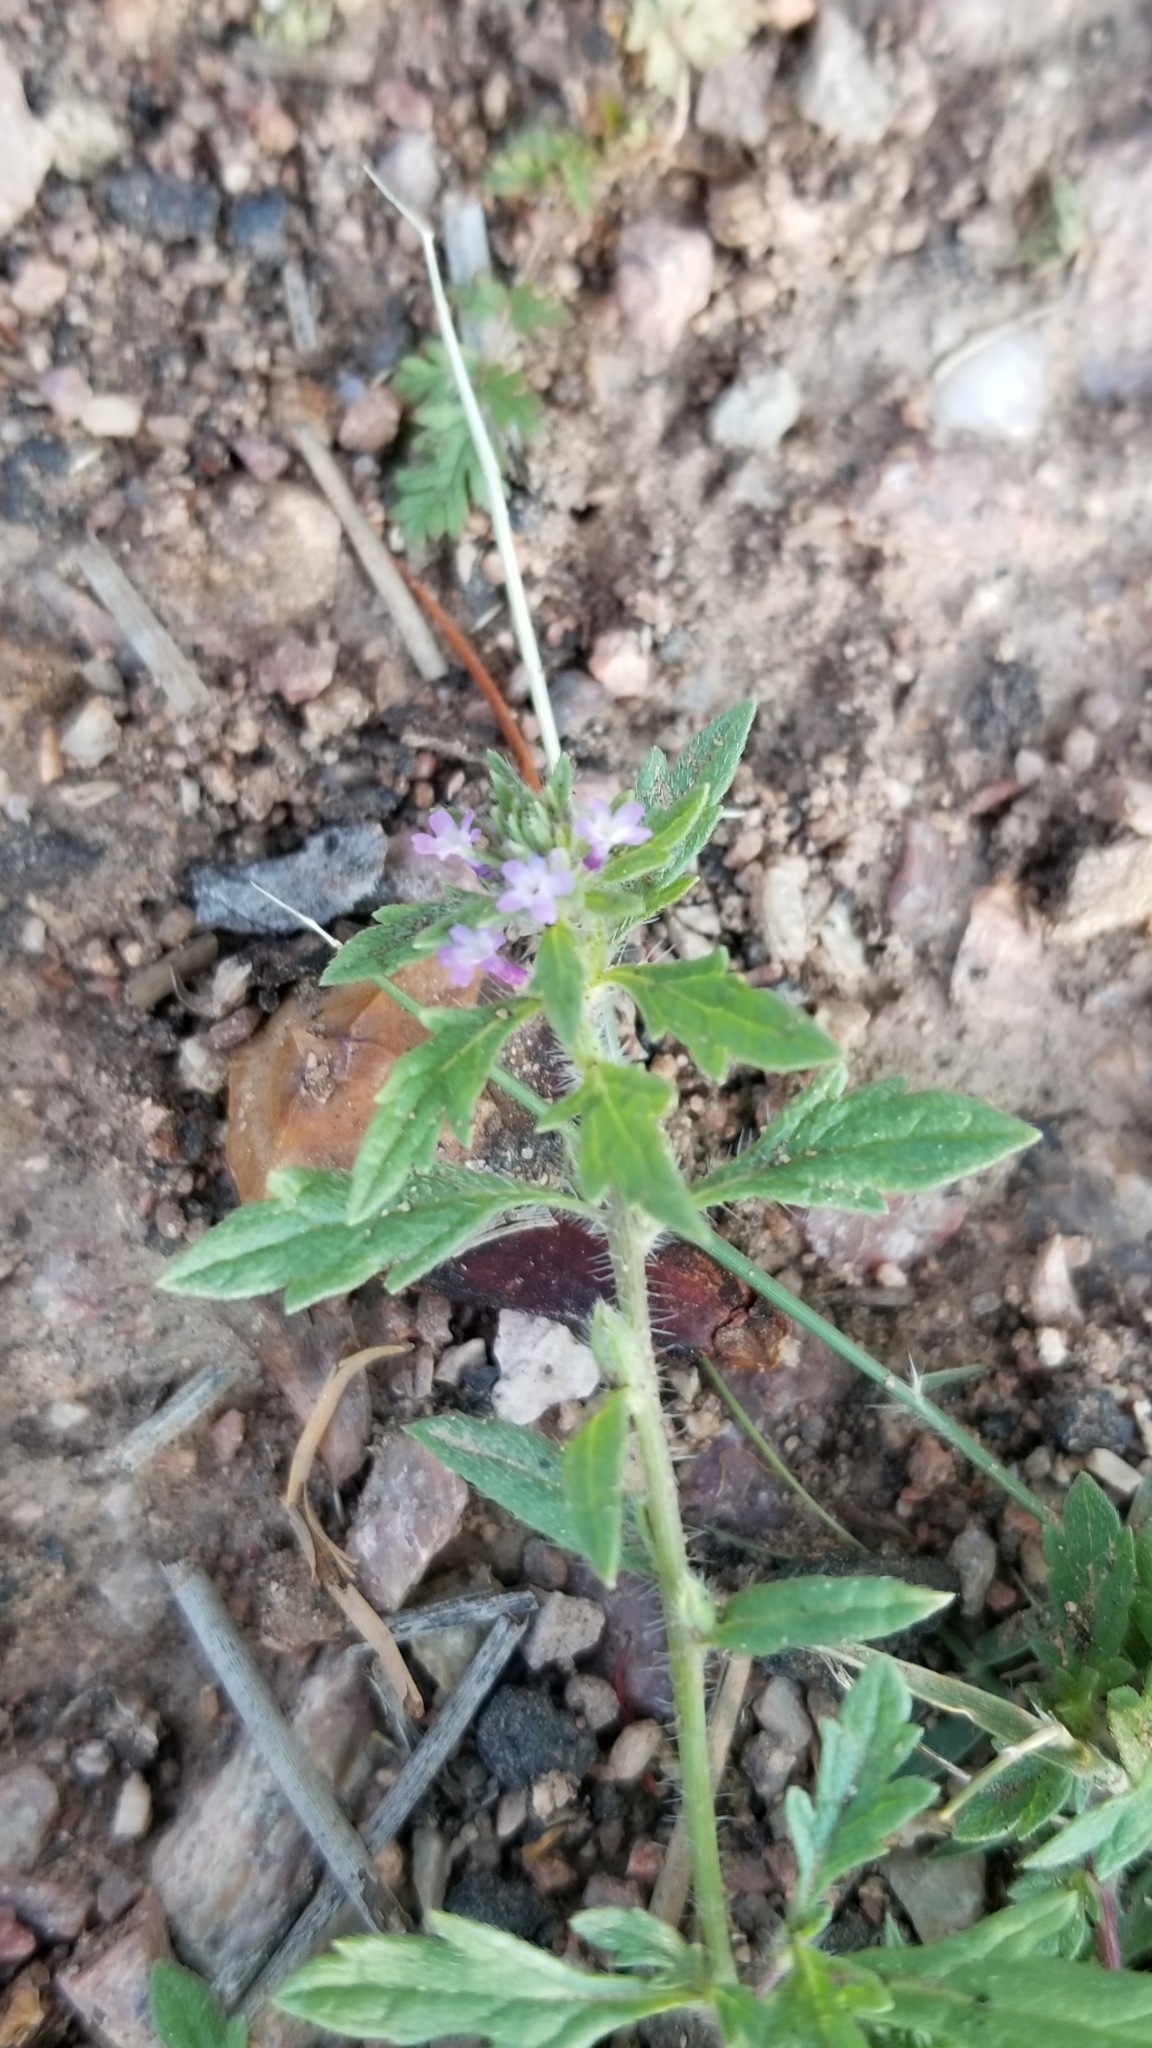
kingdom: Plantae
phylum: Tracheophyta
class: Magnoliopsida
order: Lamiales
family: Verbenaceae
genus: Verbena
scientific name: Verbena bracteata
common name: Bracted vervain
